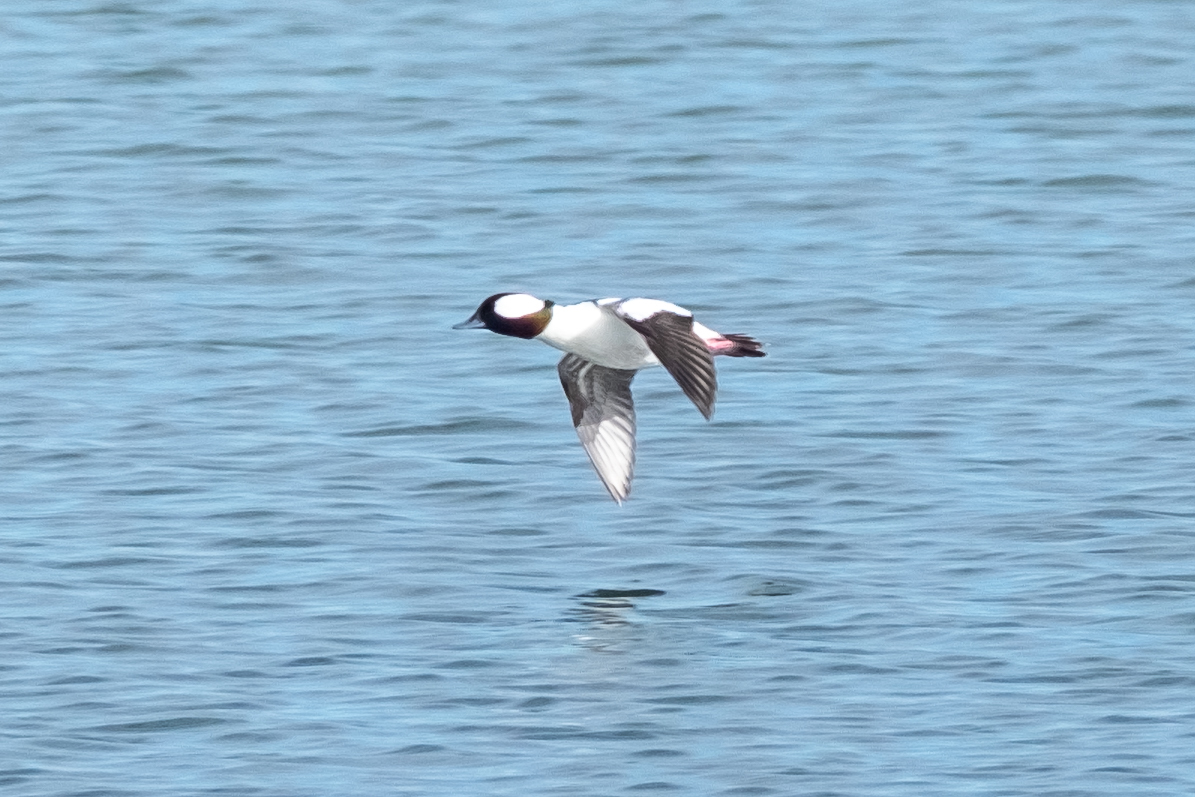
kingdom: Animalia
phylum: Chordata
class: Aves
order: Anseriformes
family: Anatidae
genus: Bucephala
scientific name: Bucephala albeola
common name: Bufflehead
